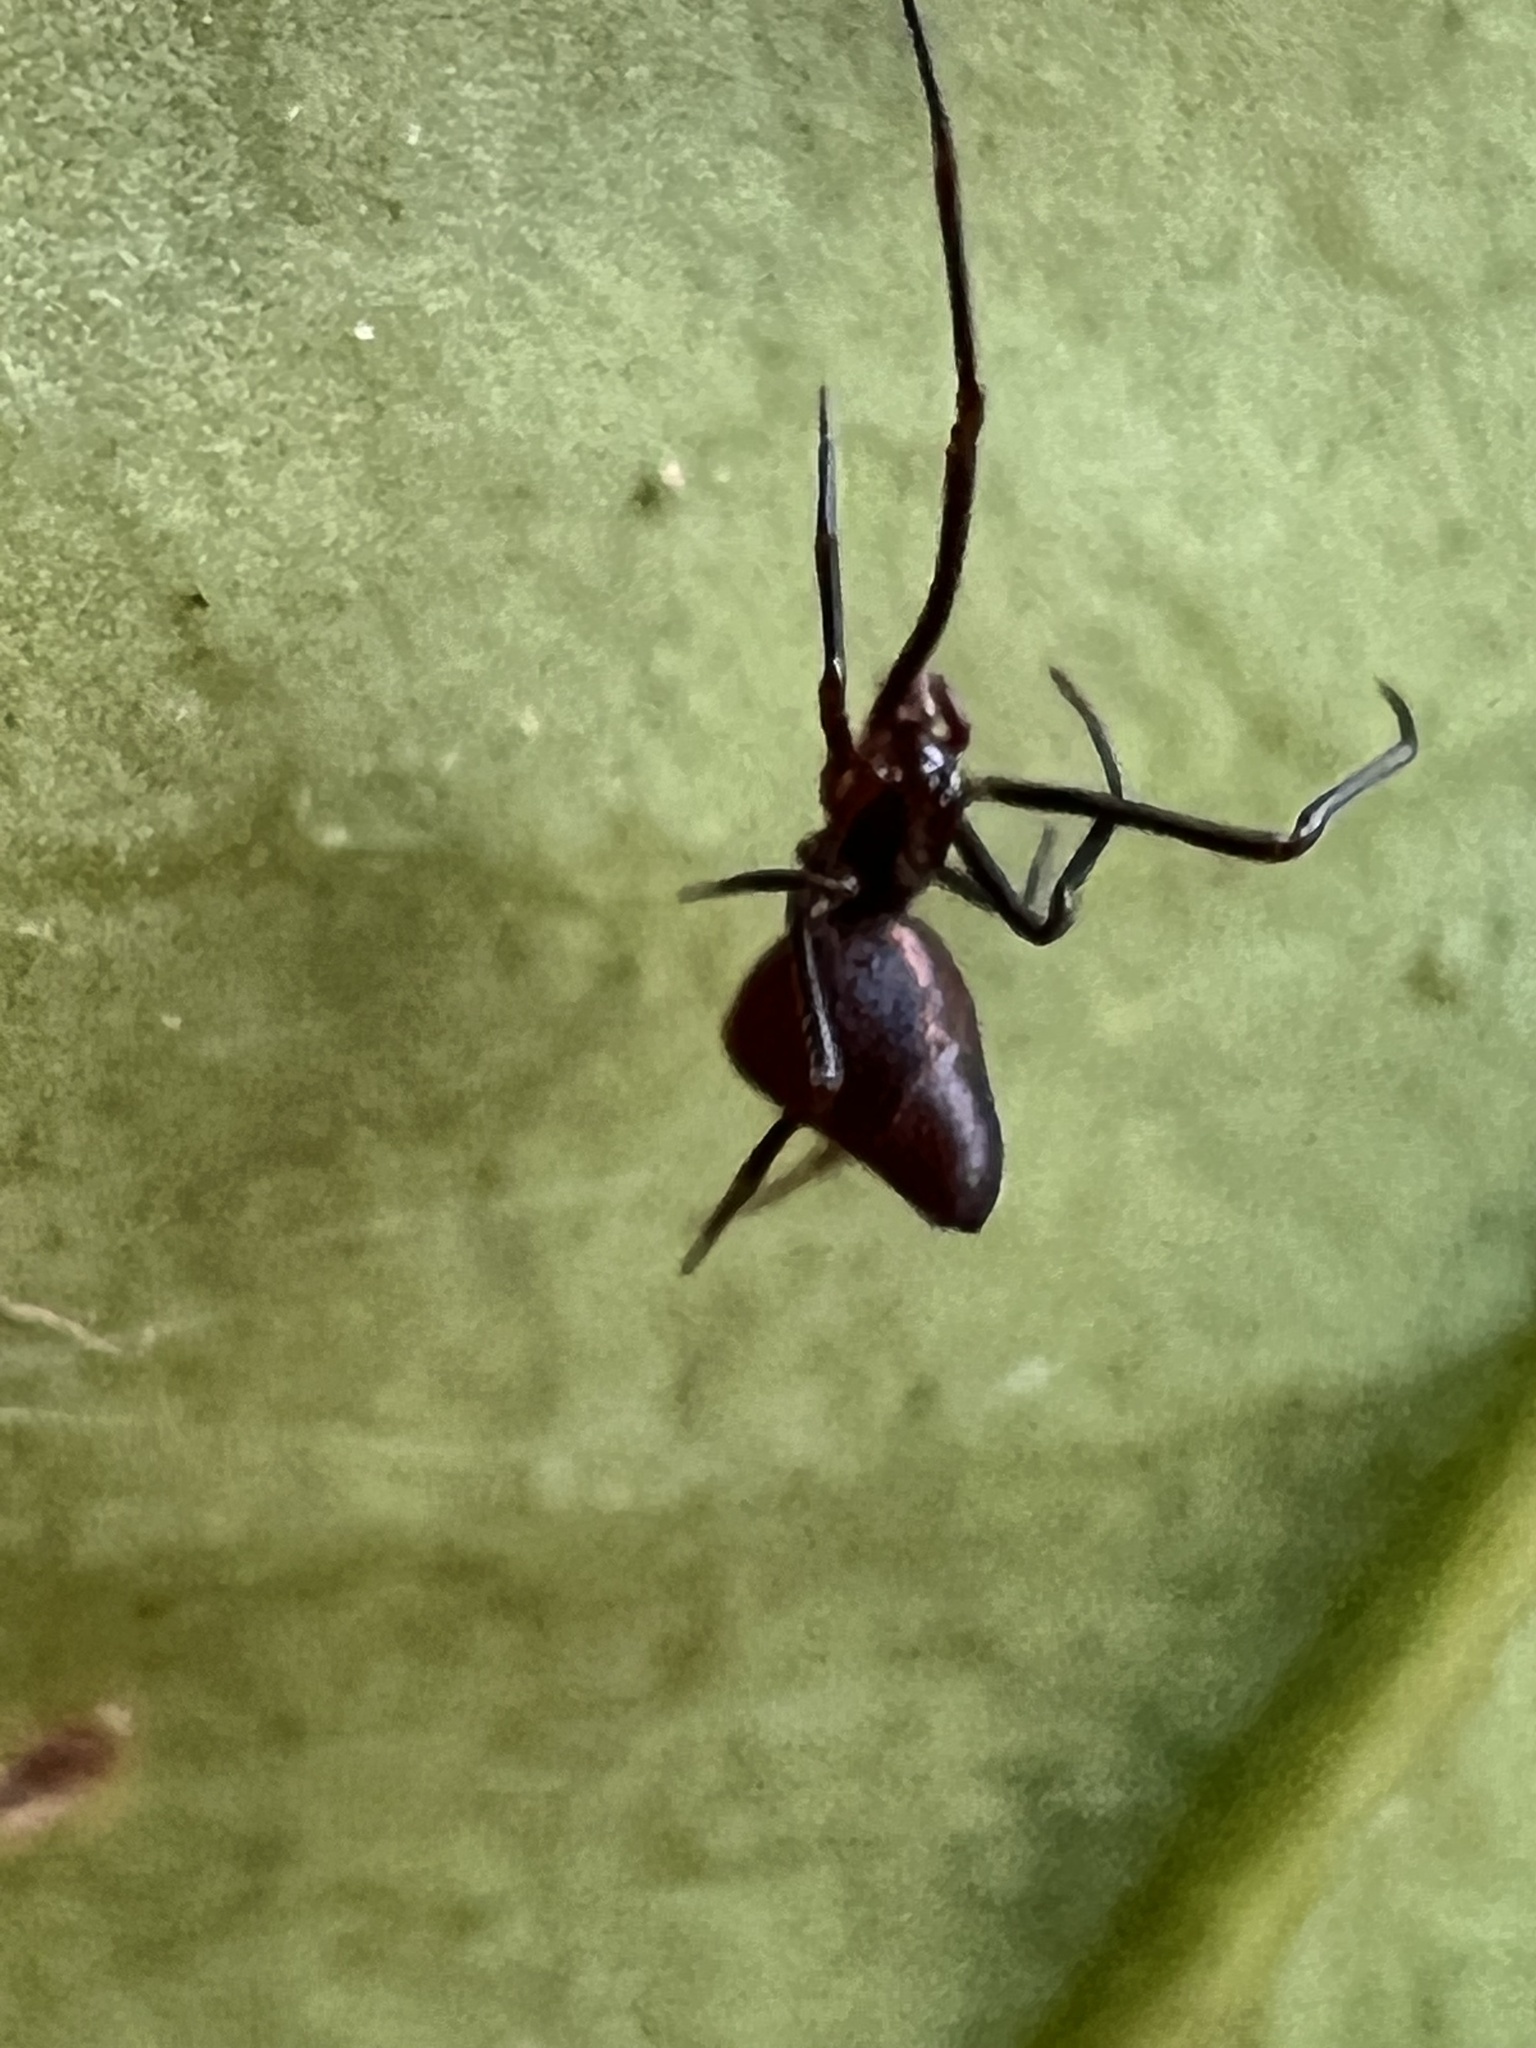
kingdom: Animalia
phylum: Arthropoda
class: Arachnida
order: Araneae
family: Theridiidae
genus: Neospintharus
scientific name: Neospintharus trigonum
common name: Horned parasitic cobweaver
